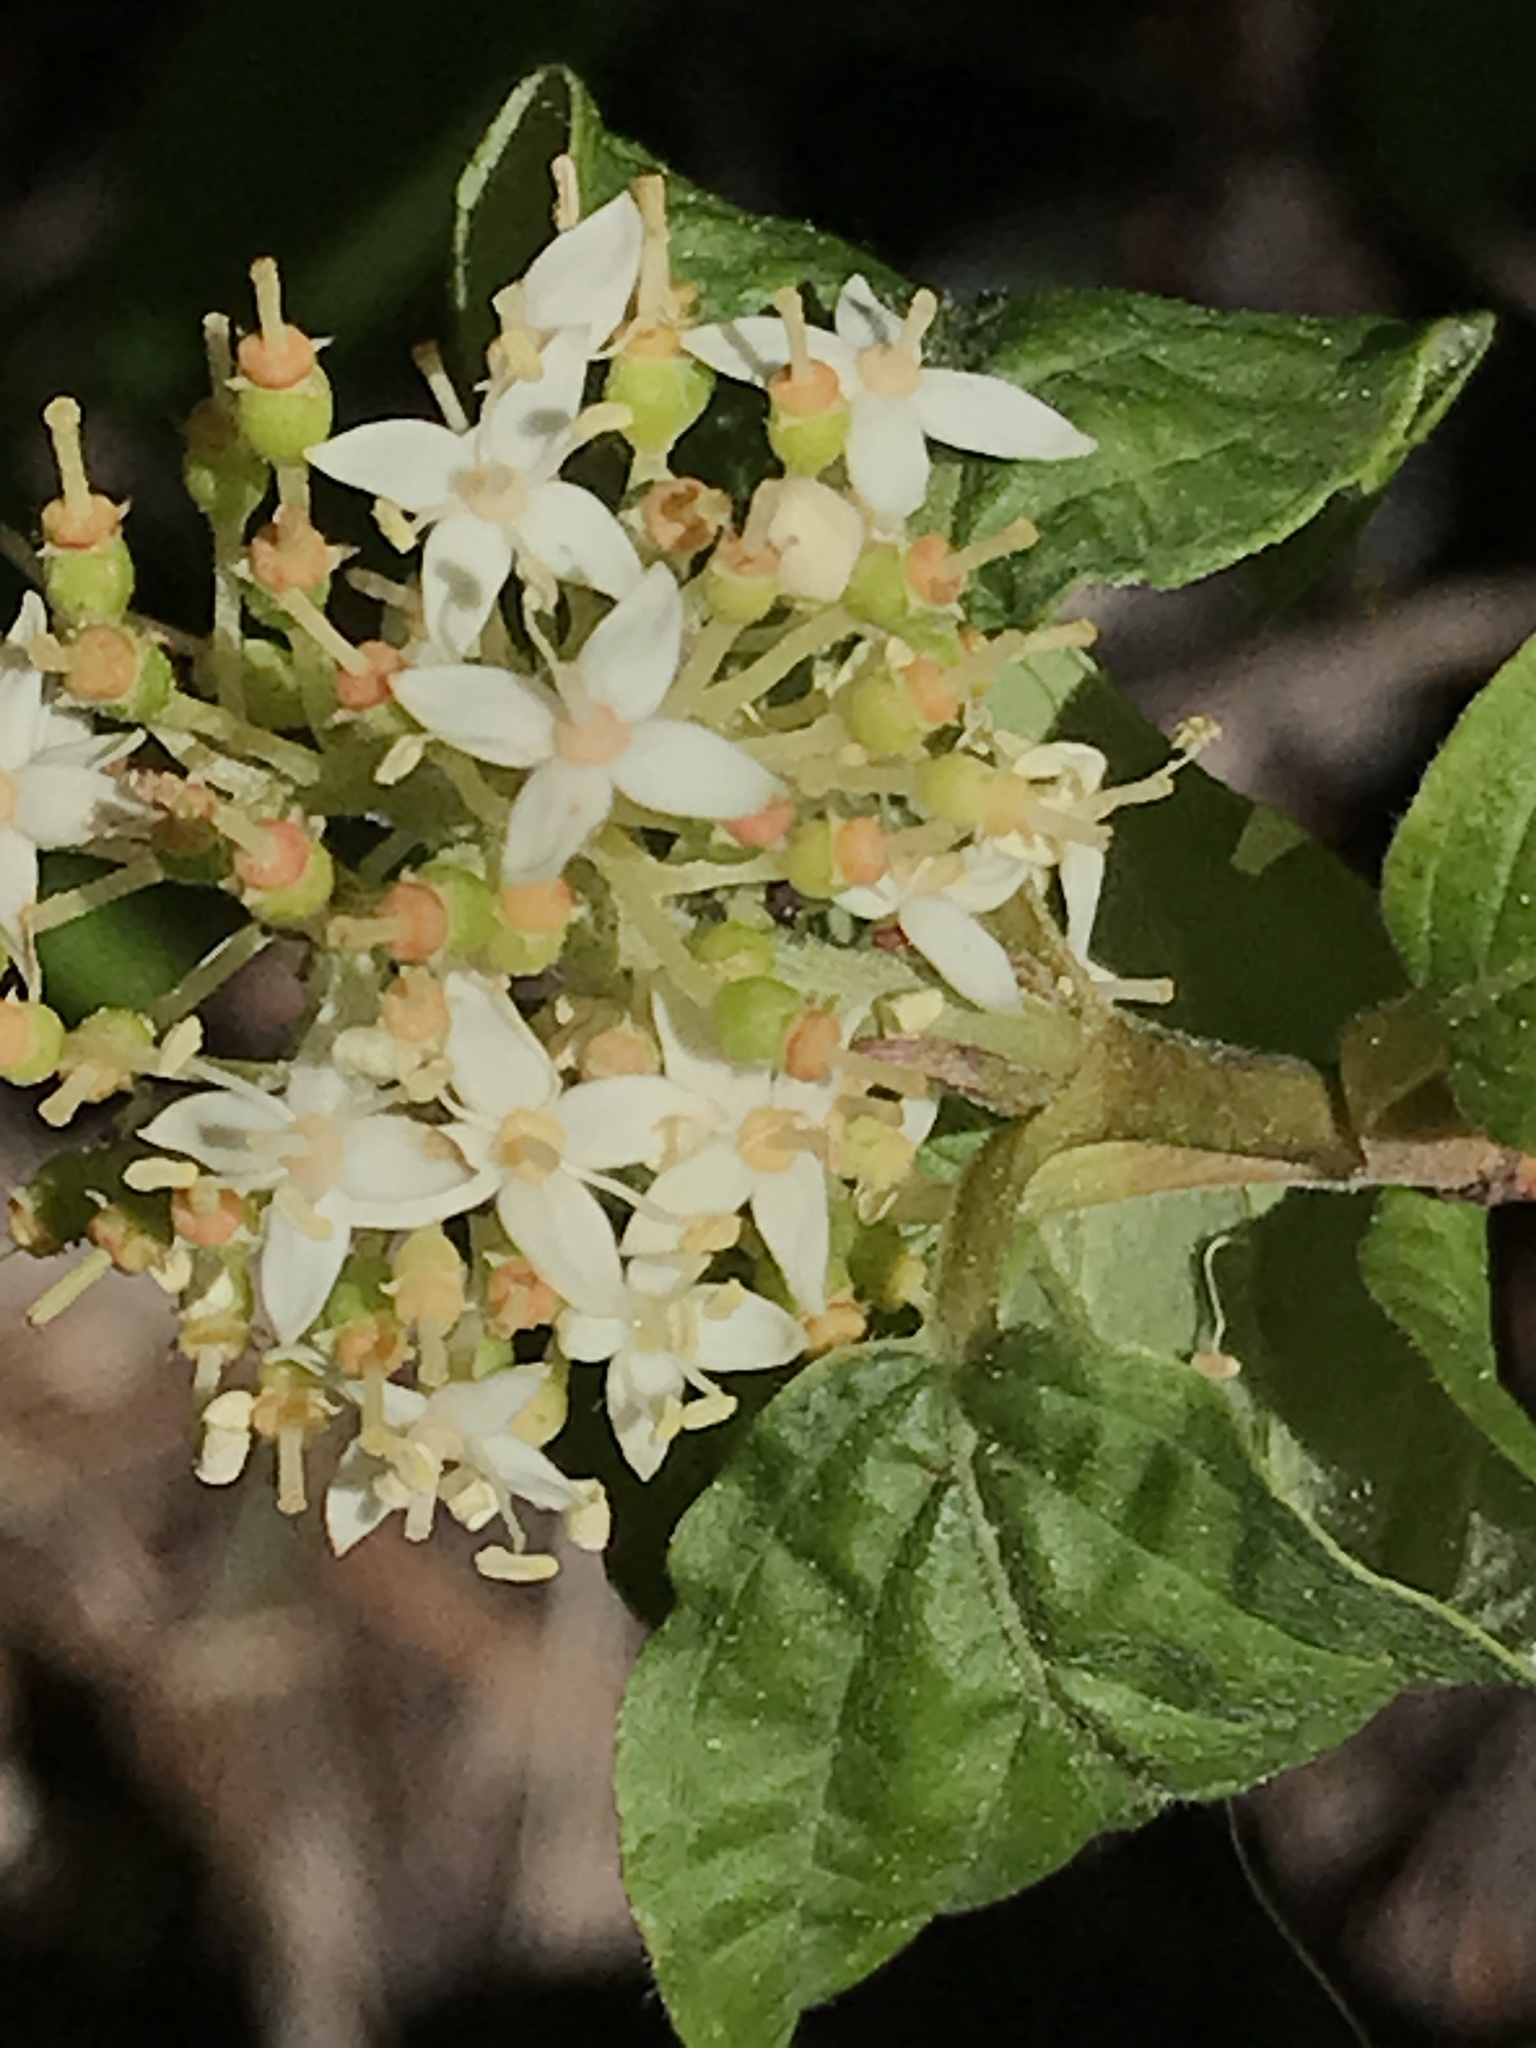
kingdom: Plantae
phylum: Tracheophyta
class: Magnoliopsida
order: Cornales
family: Cornaceae
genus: Cornus
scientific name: Cornus sericea
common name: Red-osier dogwood
